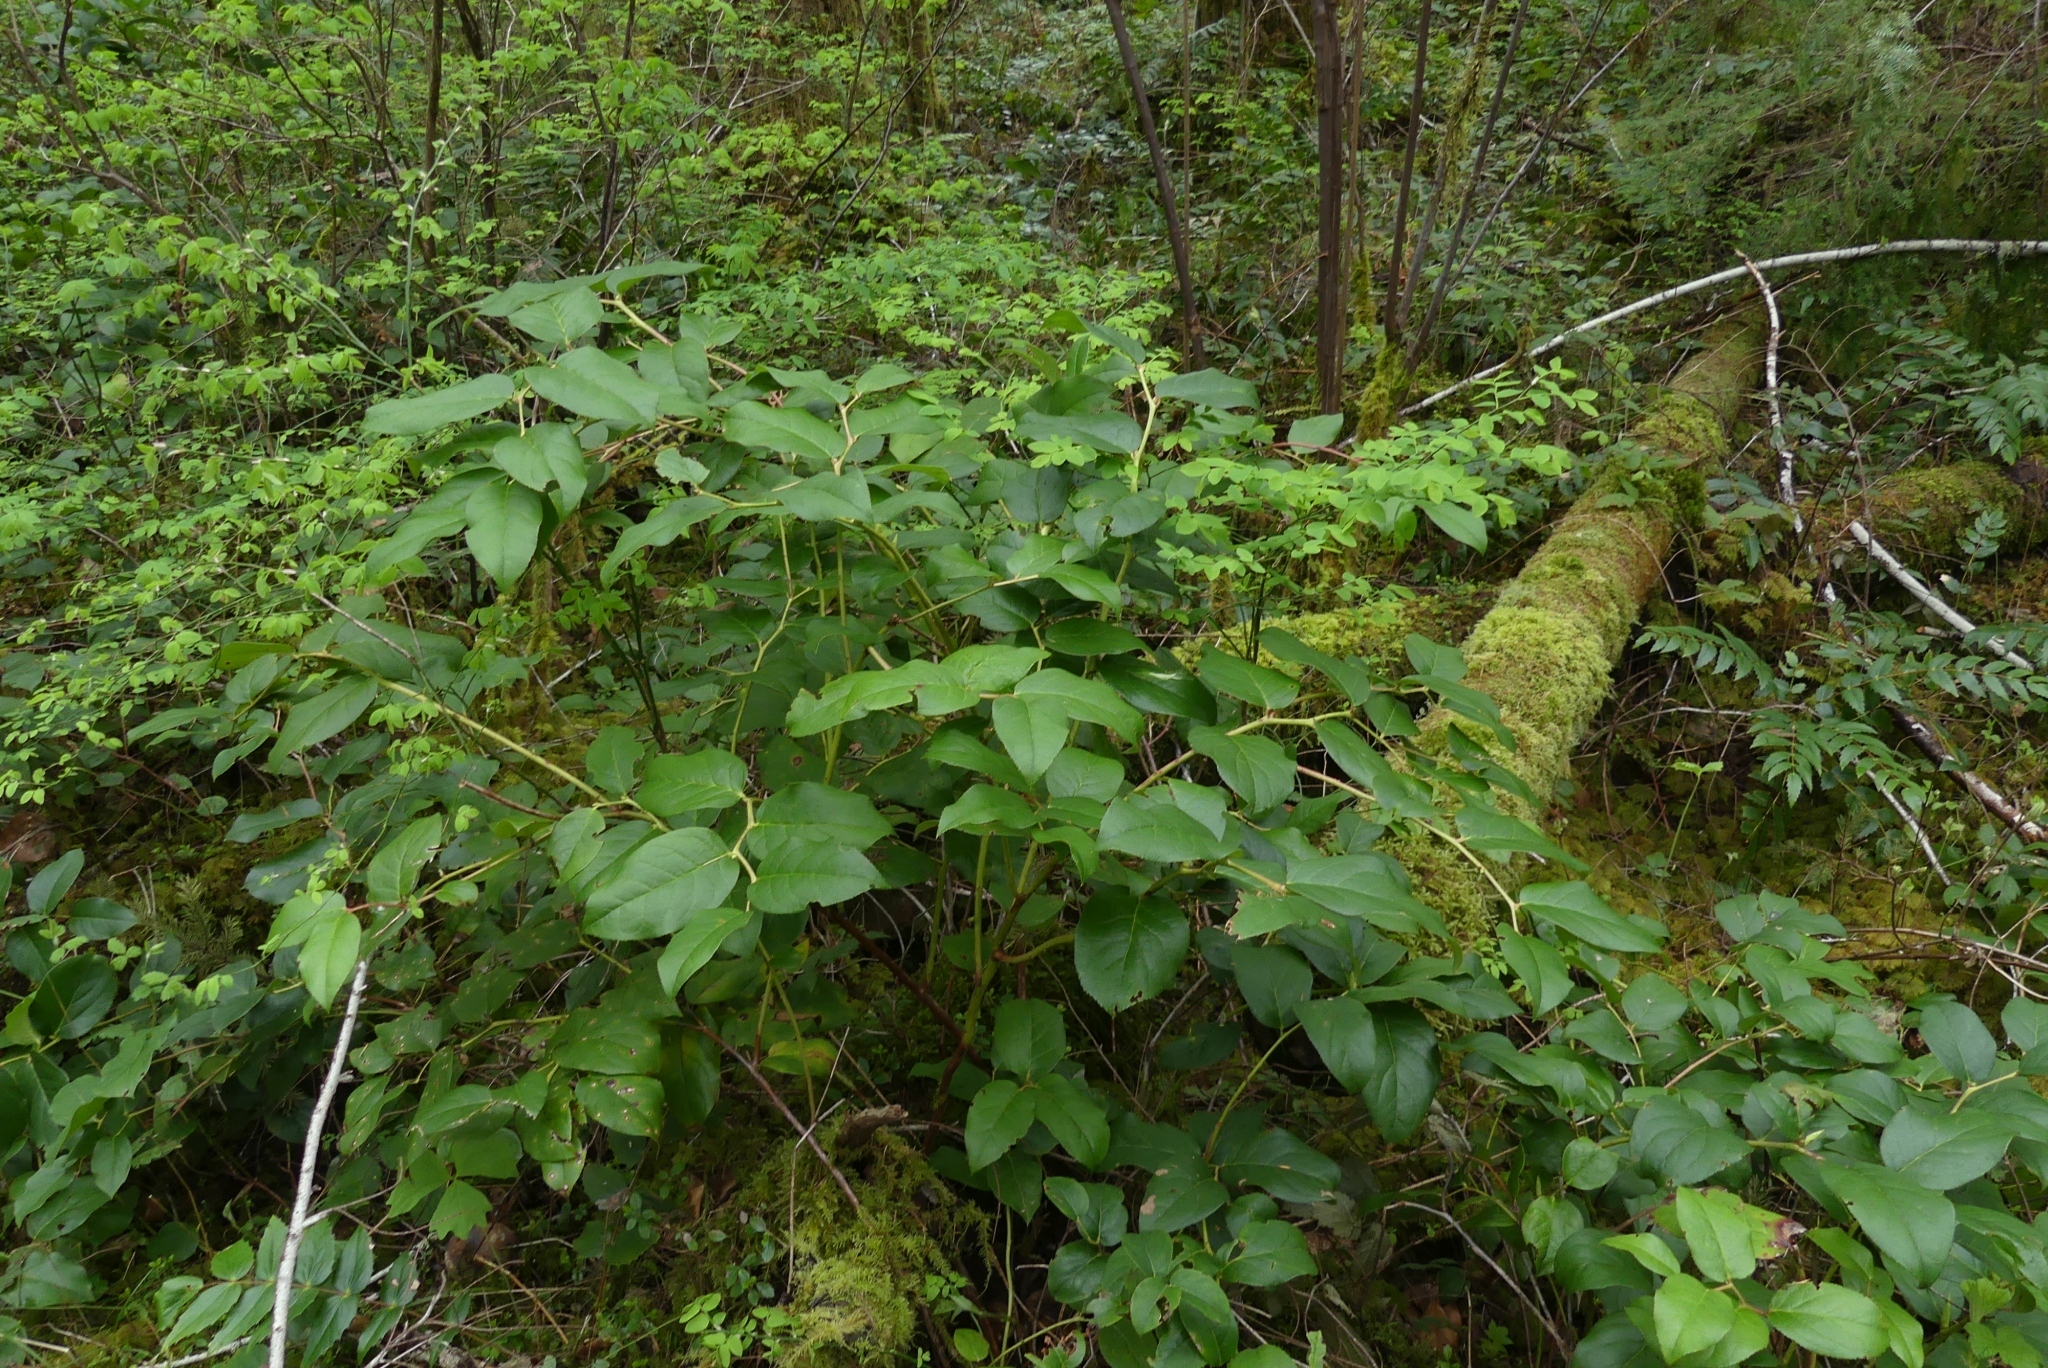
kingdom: Plantae
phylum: Tracheophyta
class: Magnoliopsida
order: Ericales
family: Ericaceae
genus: Gaultheria
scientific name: Gaultheria shallon
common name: Shallon
